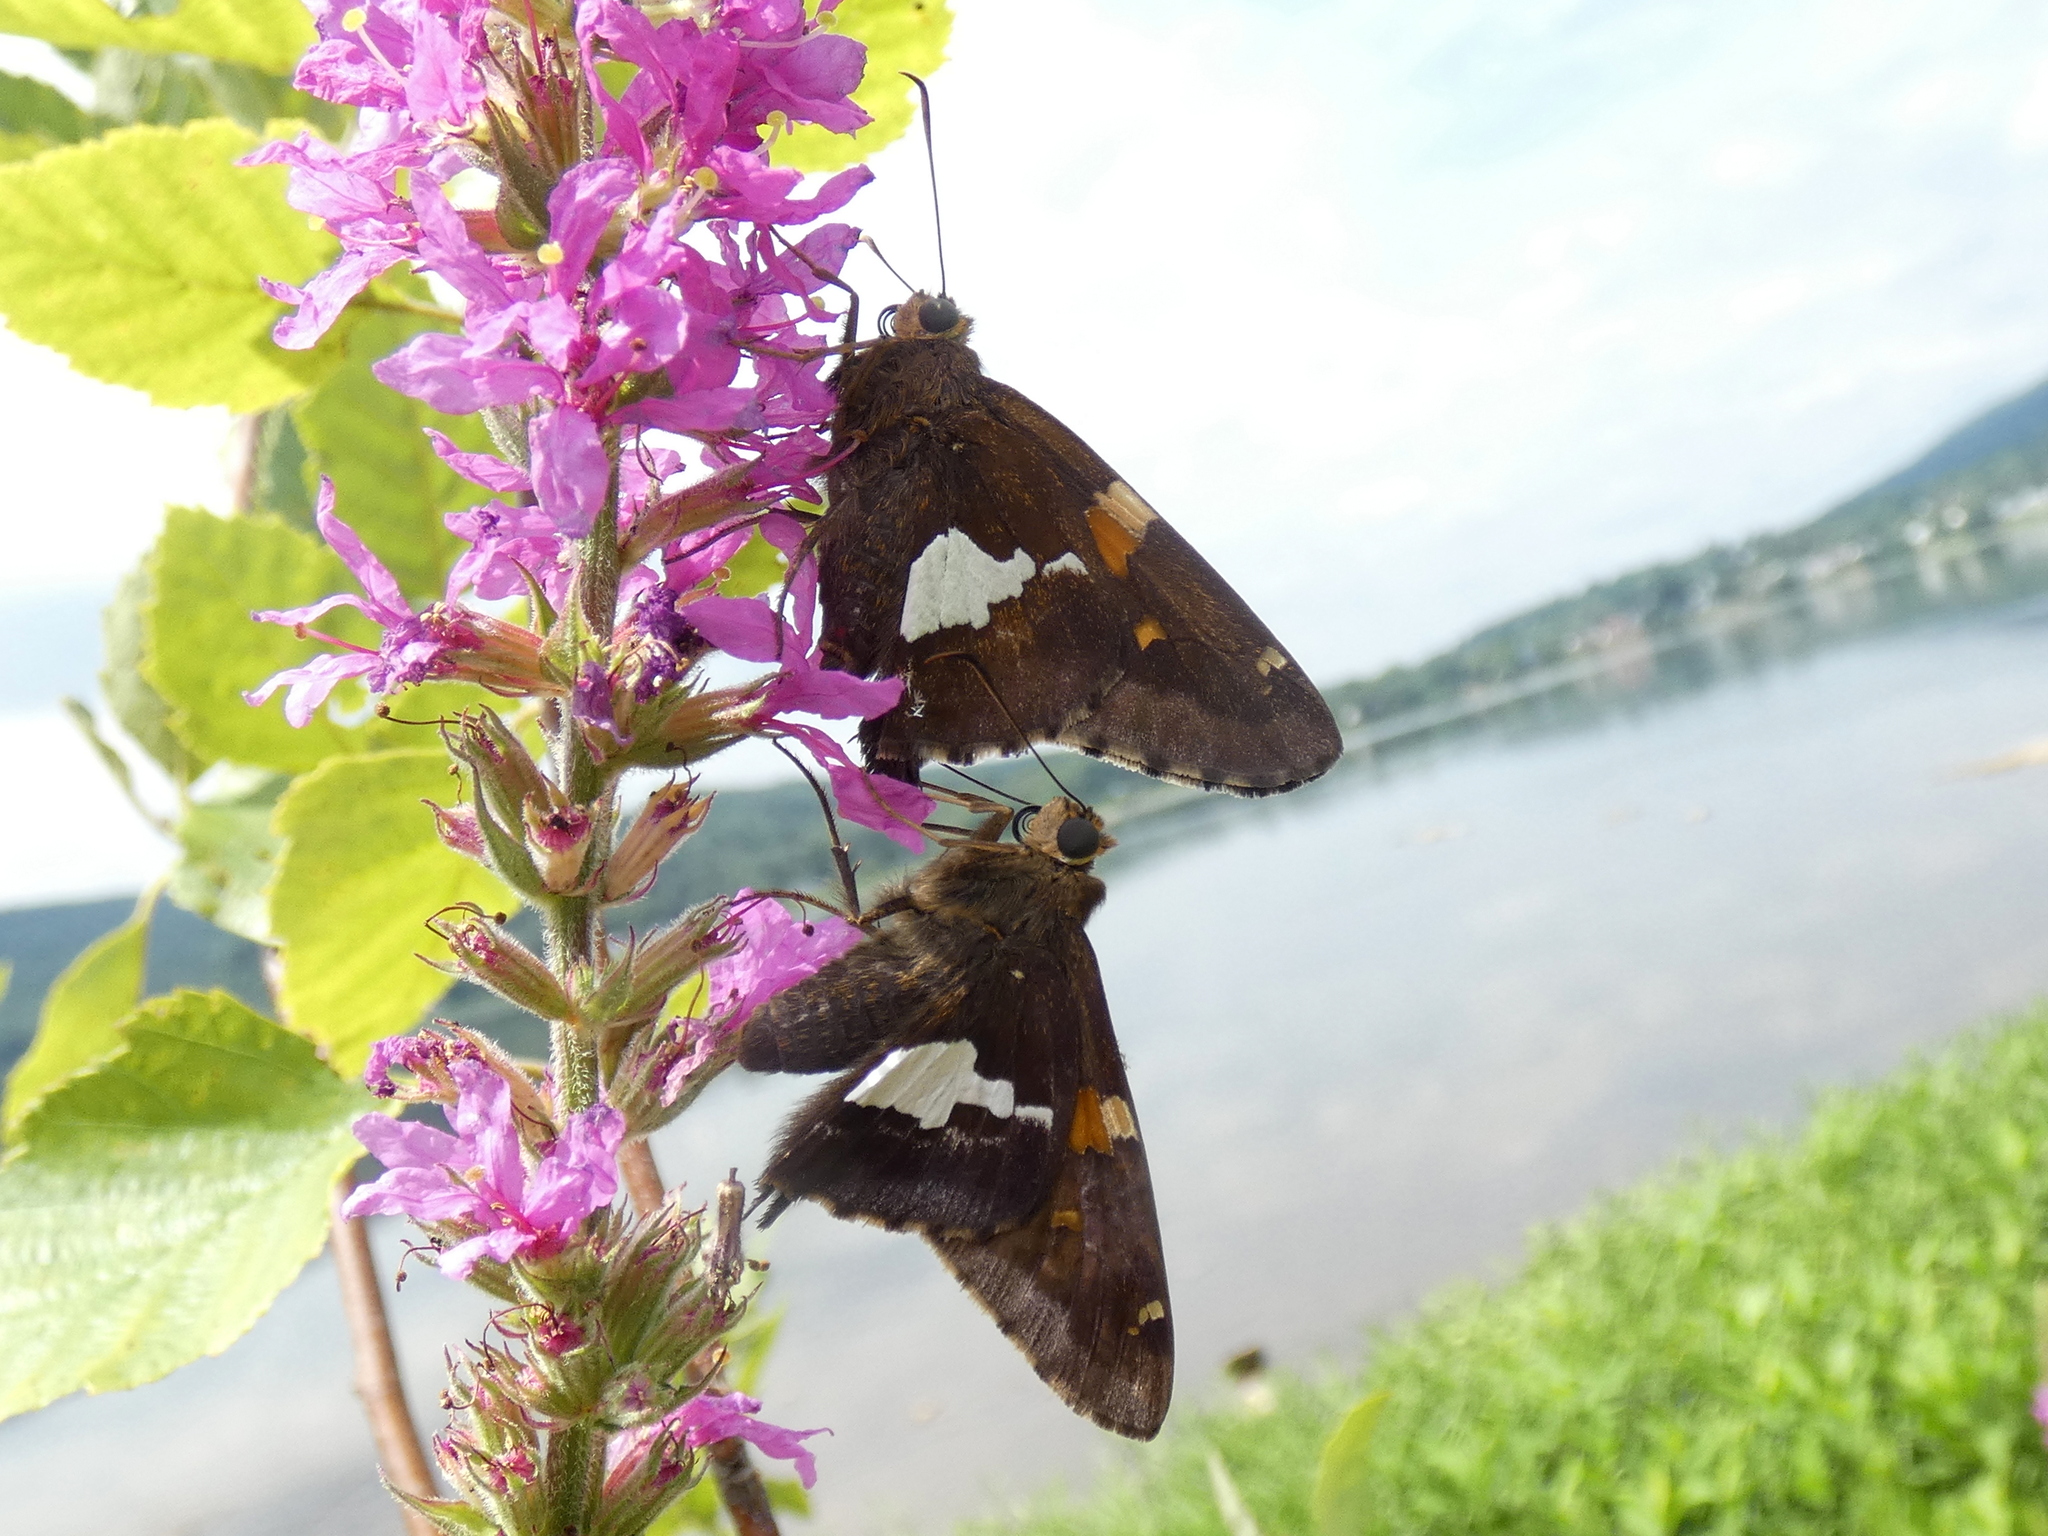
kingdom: Animalia
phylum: Arthropoda
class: Insecta
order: Lepidoptera
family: Hesperiidae
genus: Epargyreus
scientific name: Epargyreus clarus
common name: Silver-spotted skipper
